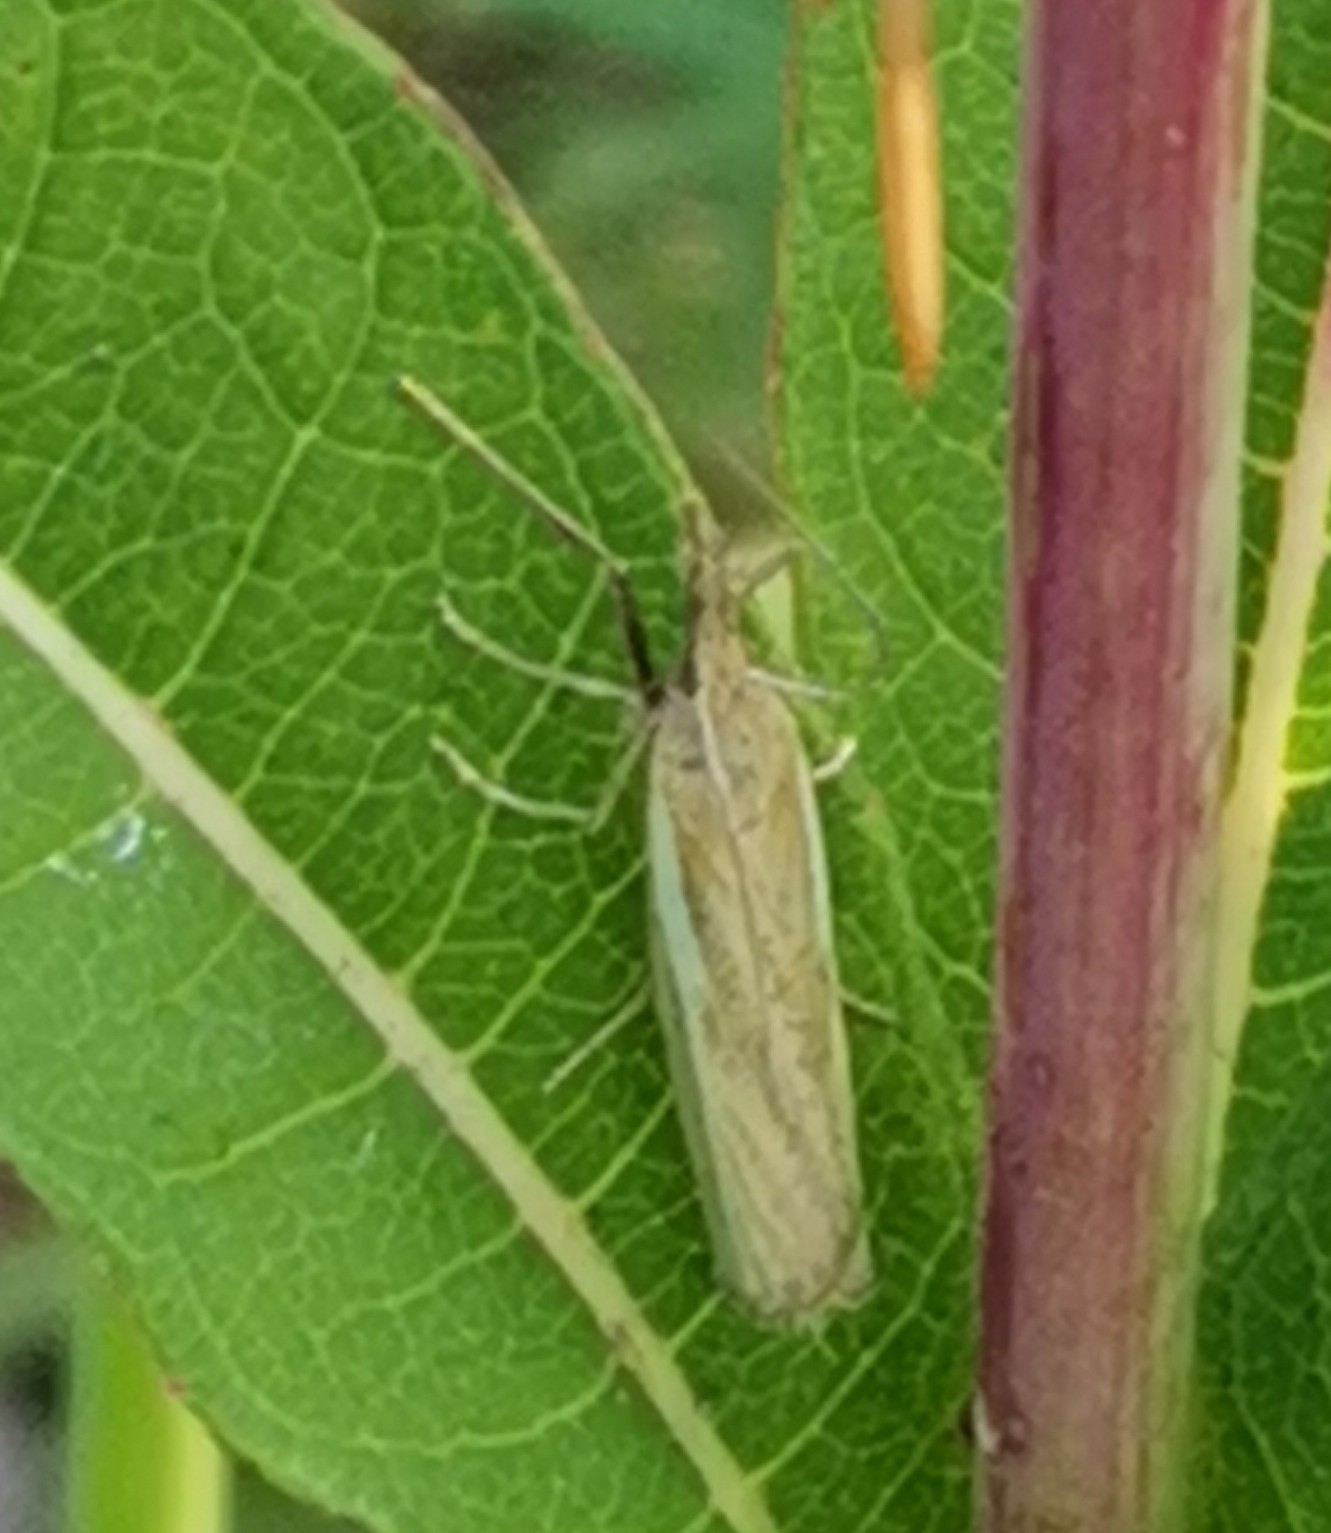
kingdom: Animalia
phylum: Arthropoda
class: Insecta
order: Lepidoptera
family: Crambidae
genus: Agriphila
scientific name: Agriphila tristellus
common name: Common grass-veneer
